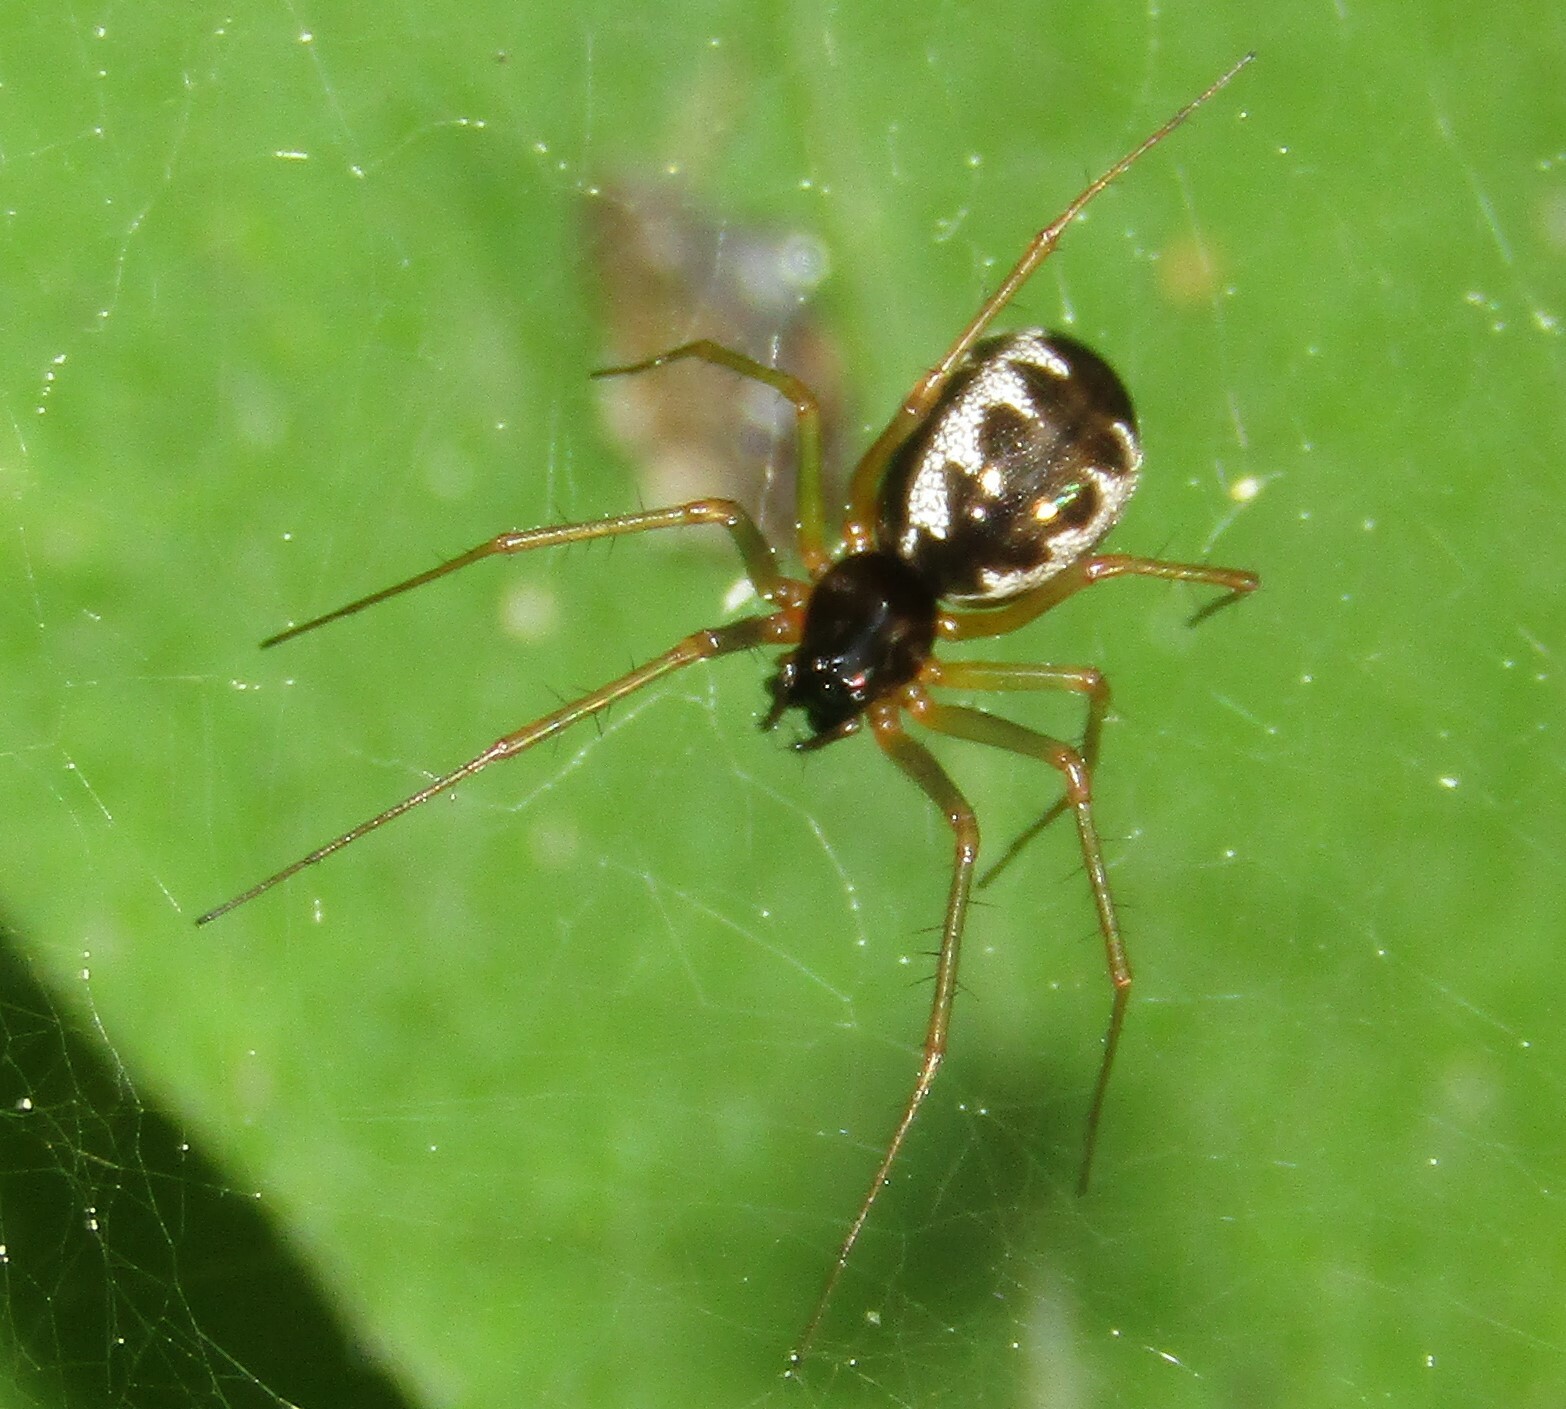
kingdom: Animalia
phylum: Arthropoda
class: Arachnida
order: Araneae
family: Linyphiidae
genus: Linyphia
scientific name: Linyphia hortensis
